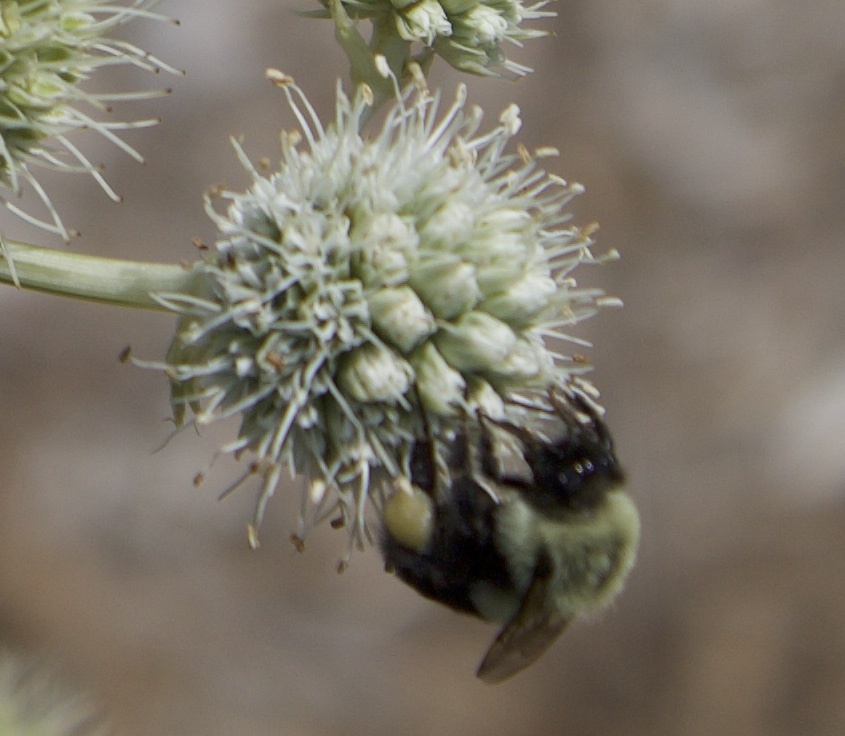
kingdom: Animalia
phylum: Arthropoda
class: Insecta
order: Hymenoptera
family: Apidae
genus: Bombus
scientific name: Bombus impatiens
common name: Common eastern bumble bee
